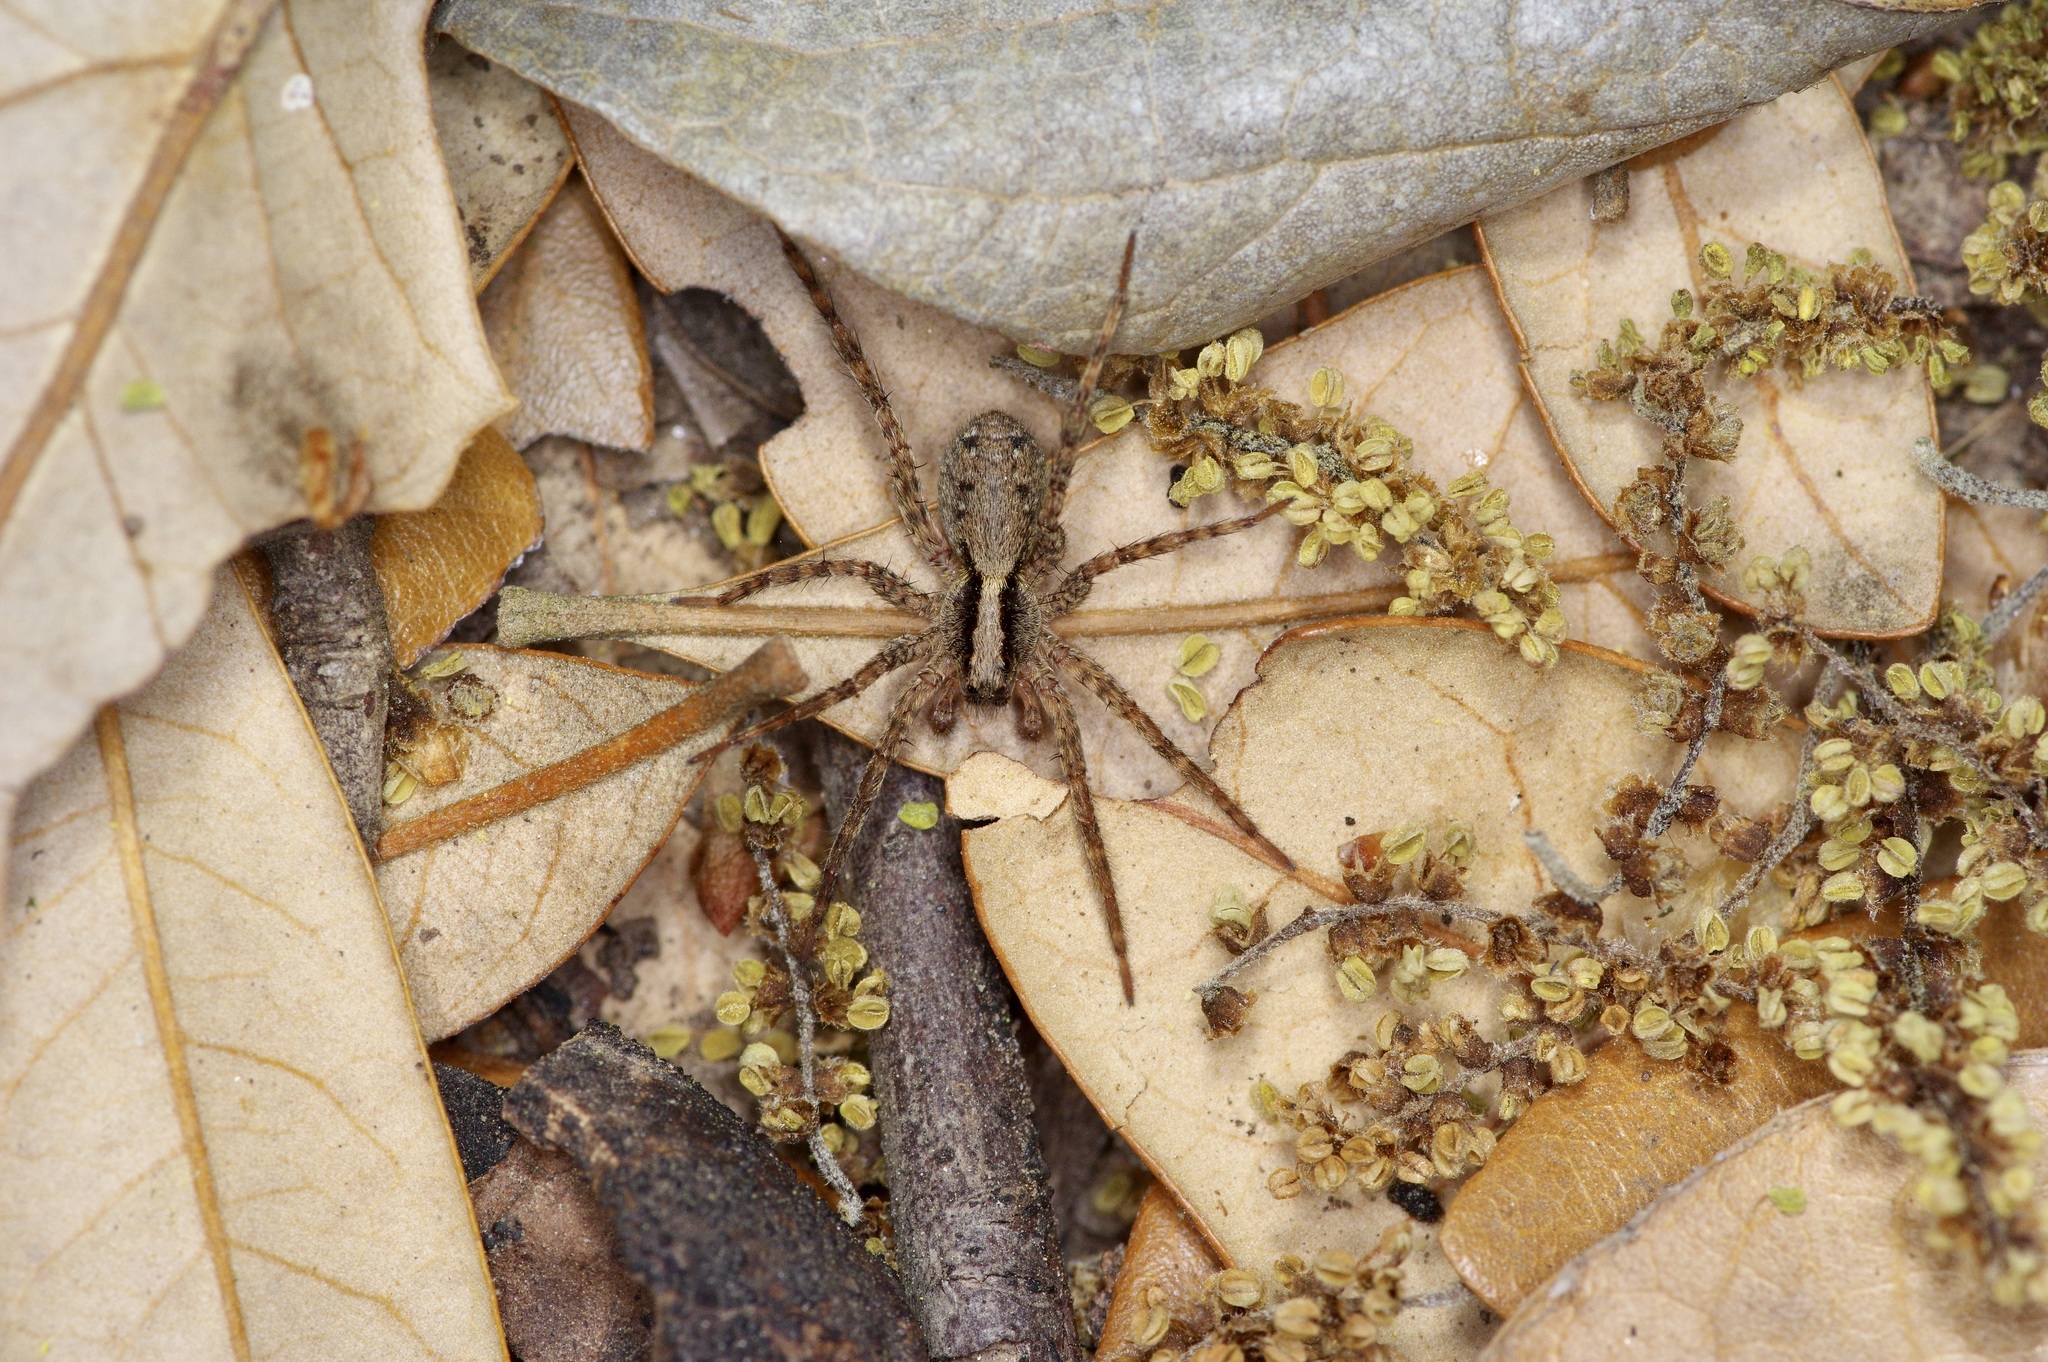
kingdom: Animalia
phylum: Arthropoda
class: Arachnida
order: Araneae
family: Lycosidae
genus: Schizocosa
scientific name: Schizocosa retrorsa
